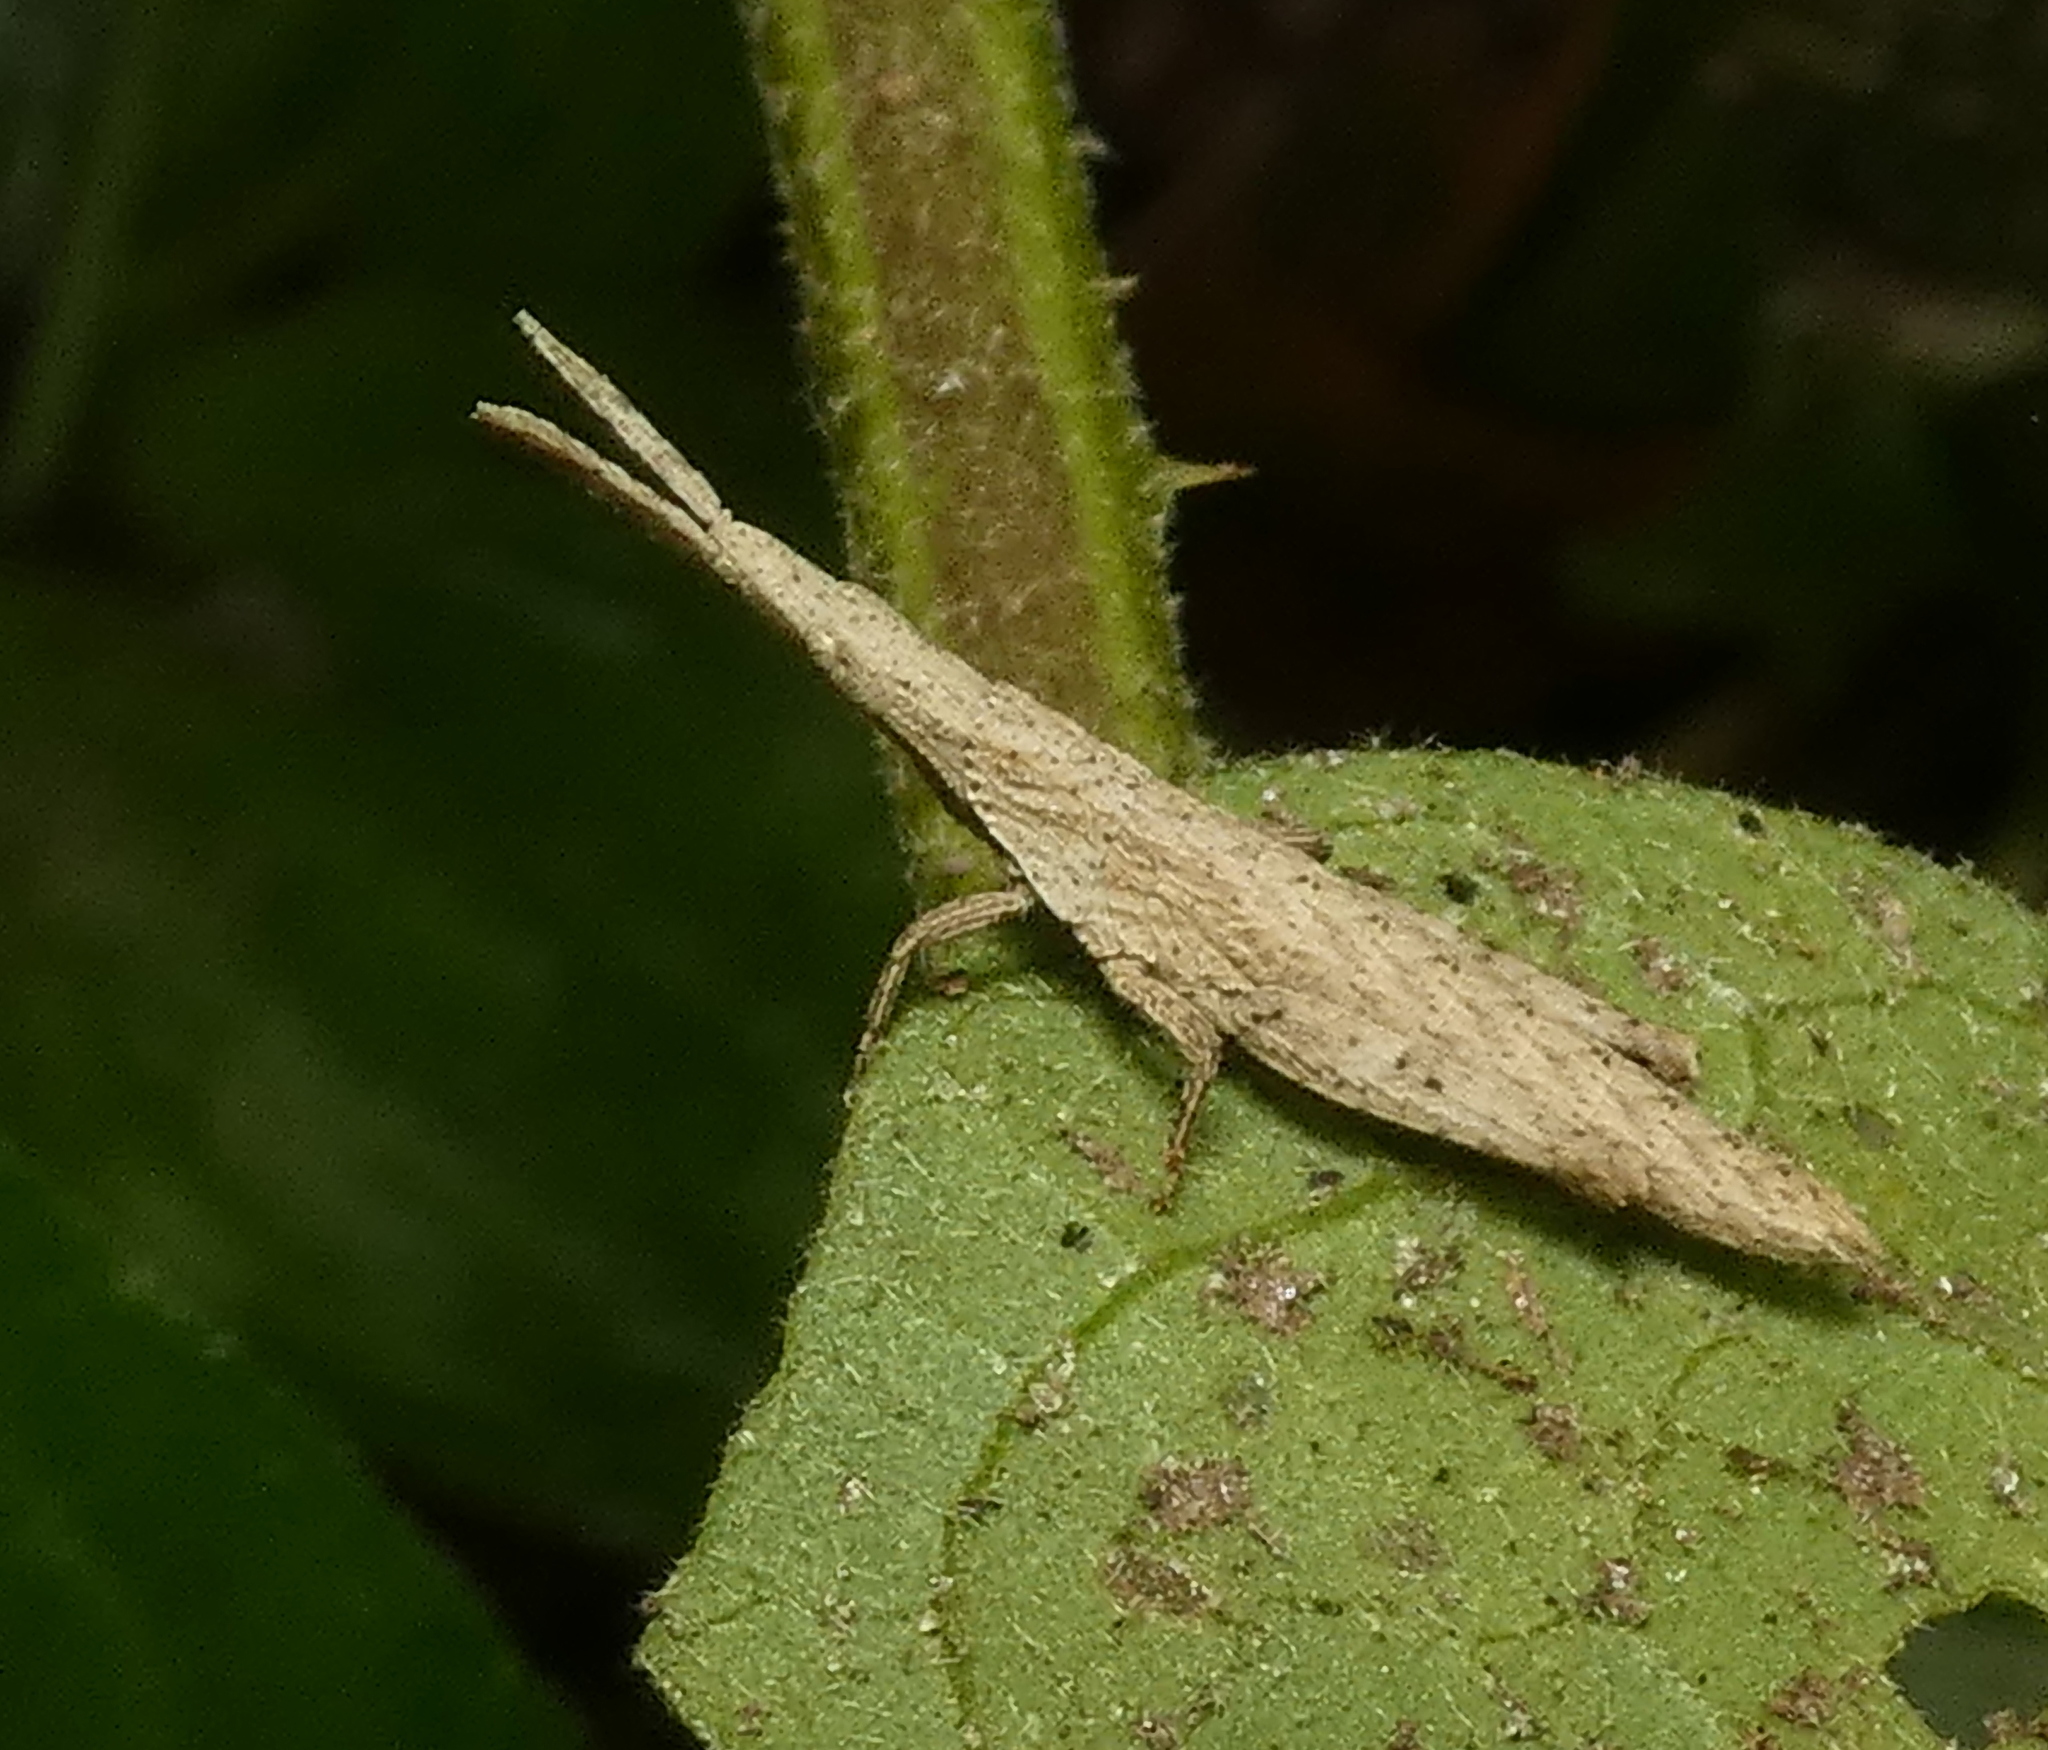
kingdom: Animalia
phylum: Arthropoda
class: Insecta
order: Orthoptera
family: Pyrgomorphidae
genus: Algete
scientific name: Algete brunneri
